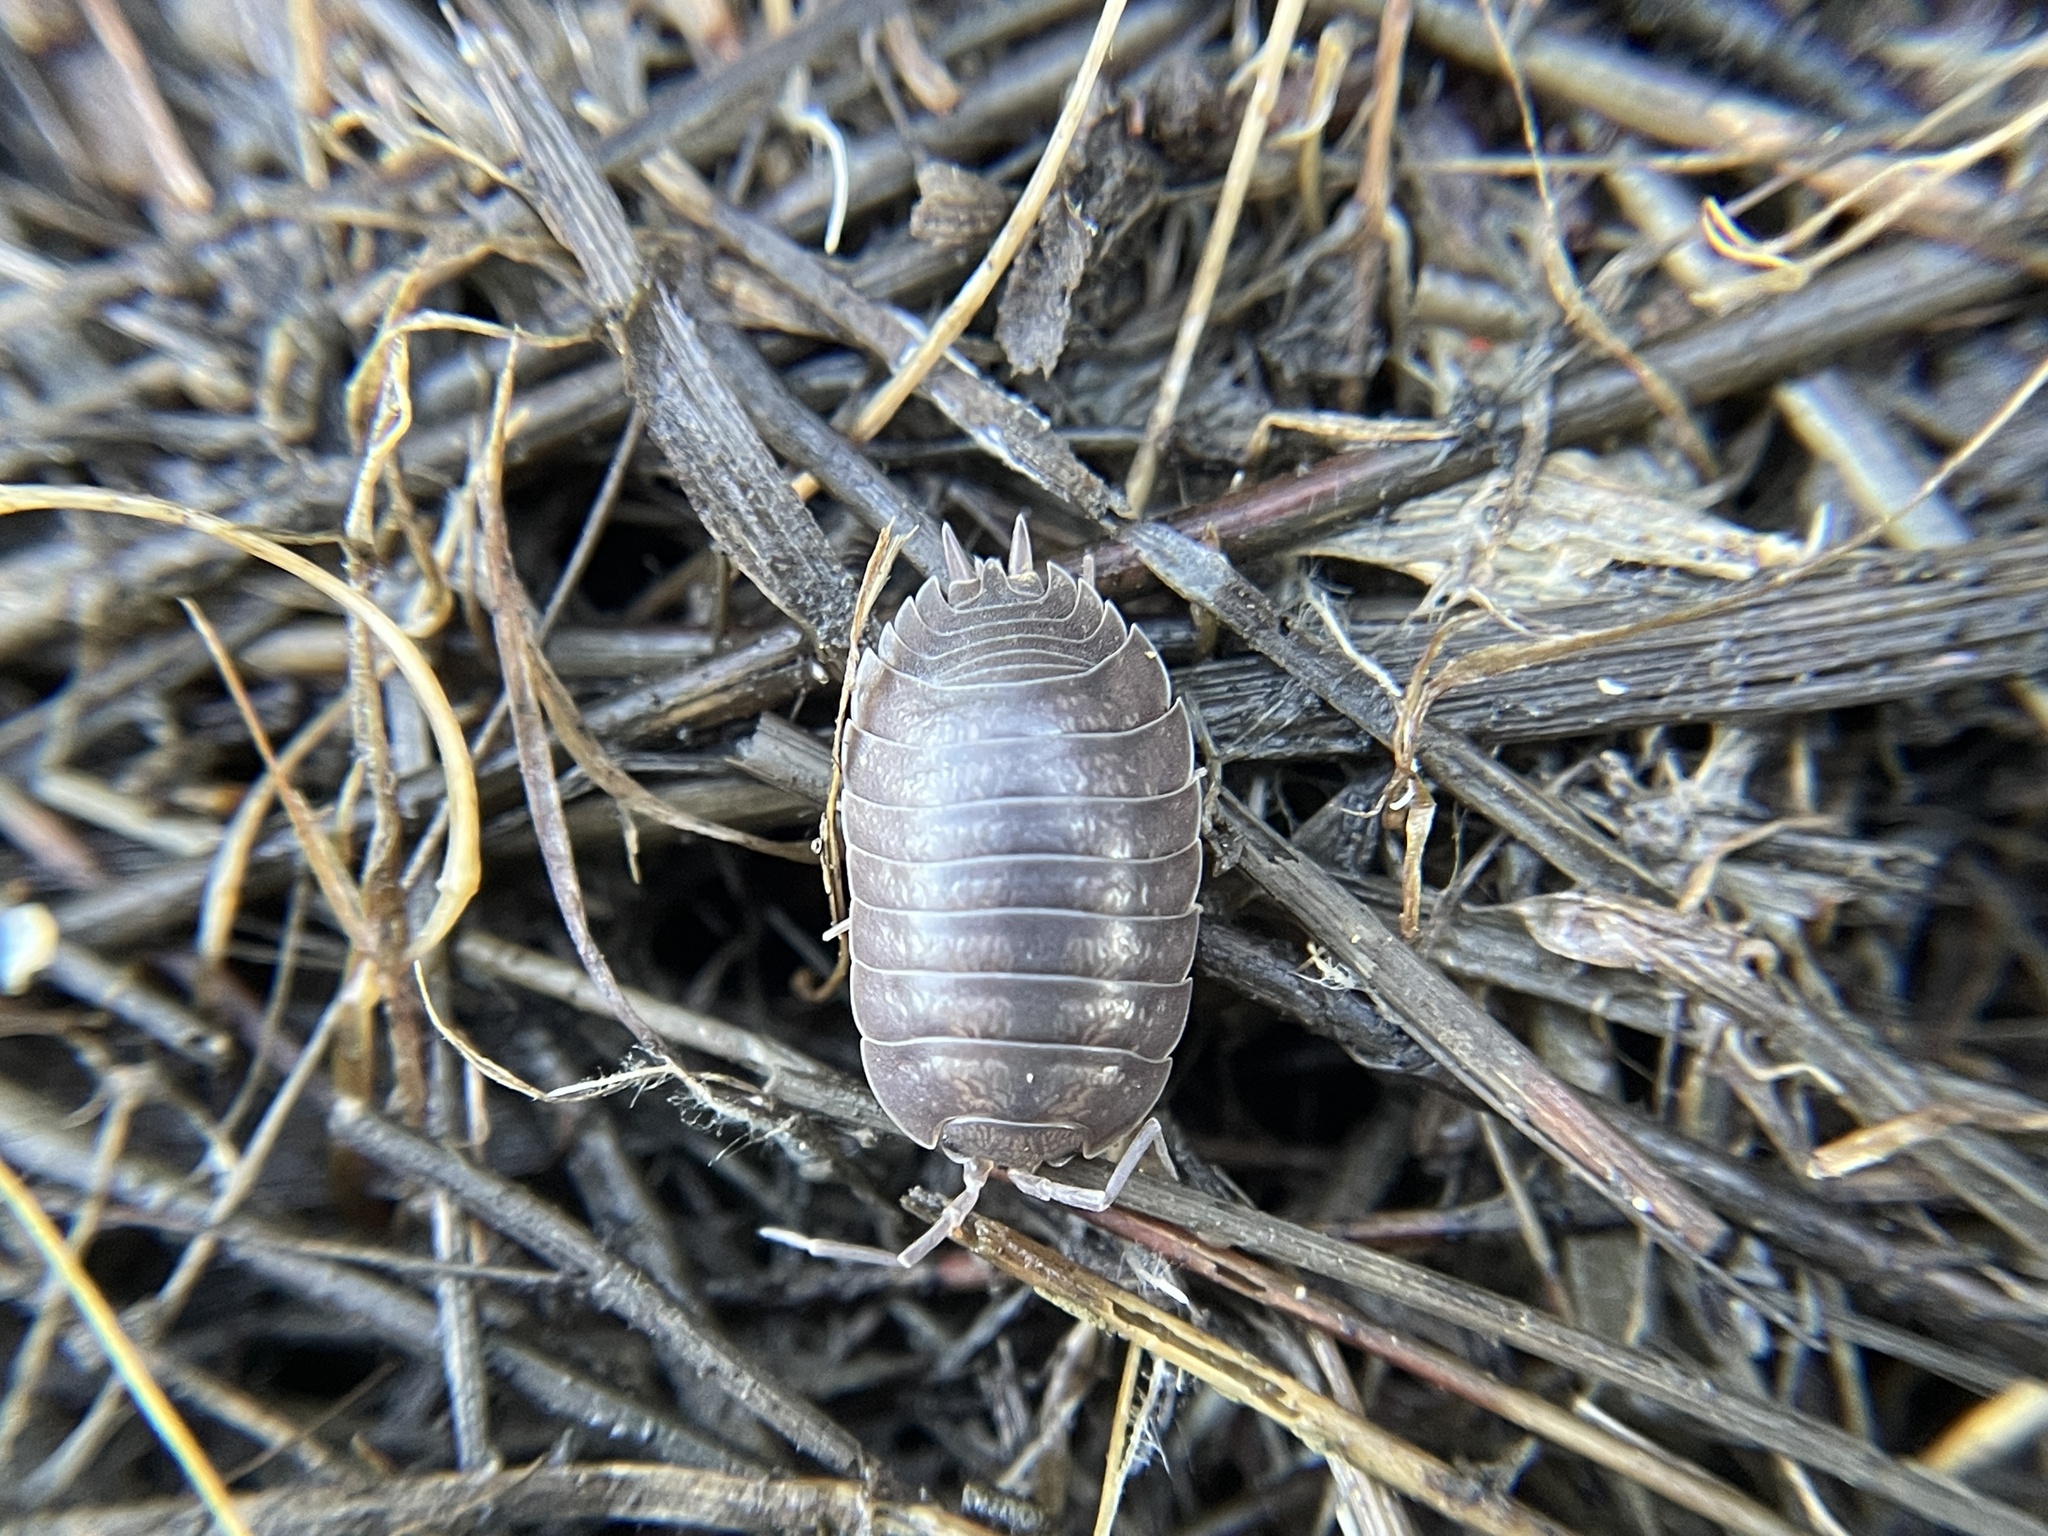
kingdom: Animalia
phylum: Arthropoda
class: Malacostraca
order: Isopoda
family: Porcellionidae
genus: Porcellio
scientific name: Porcellio laevis
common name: Swift woodlouse
